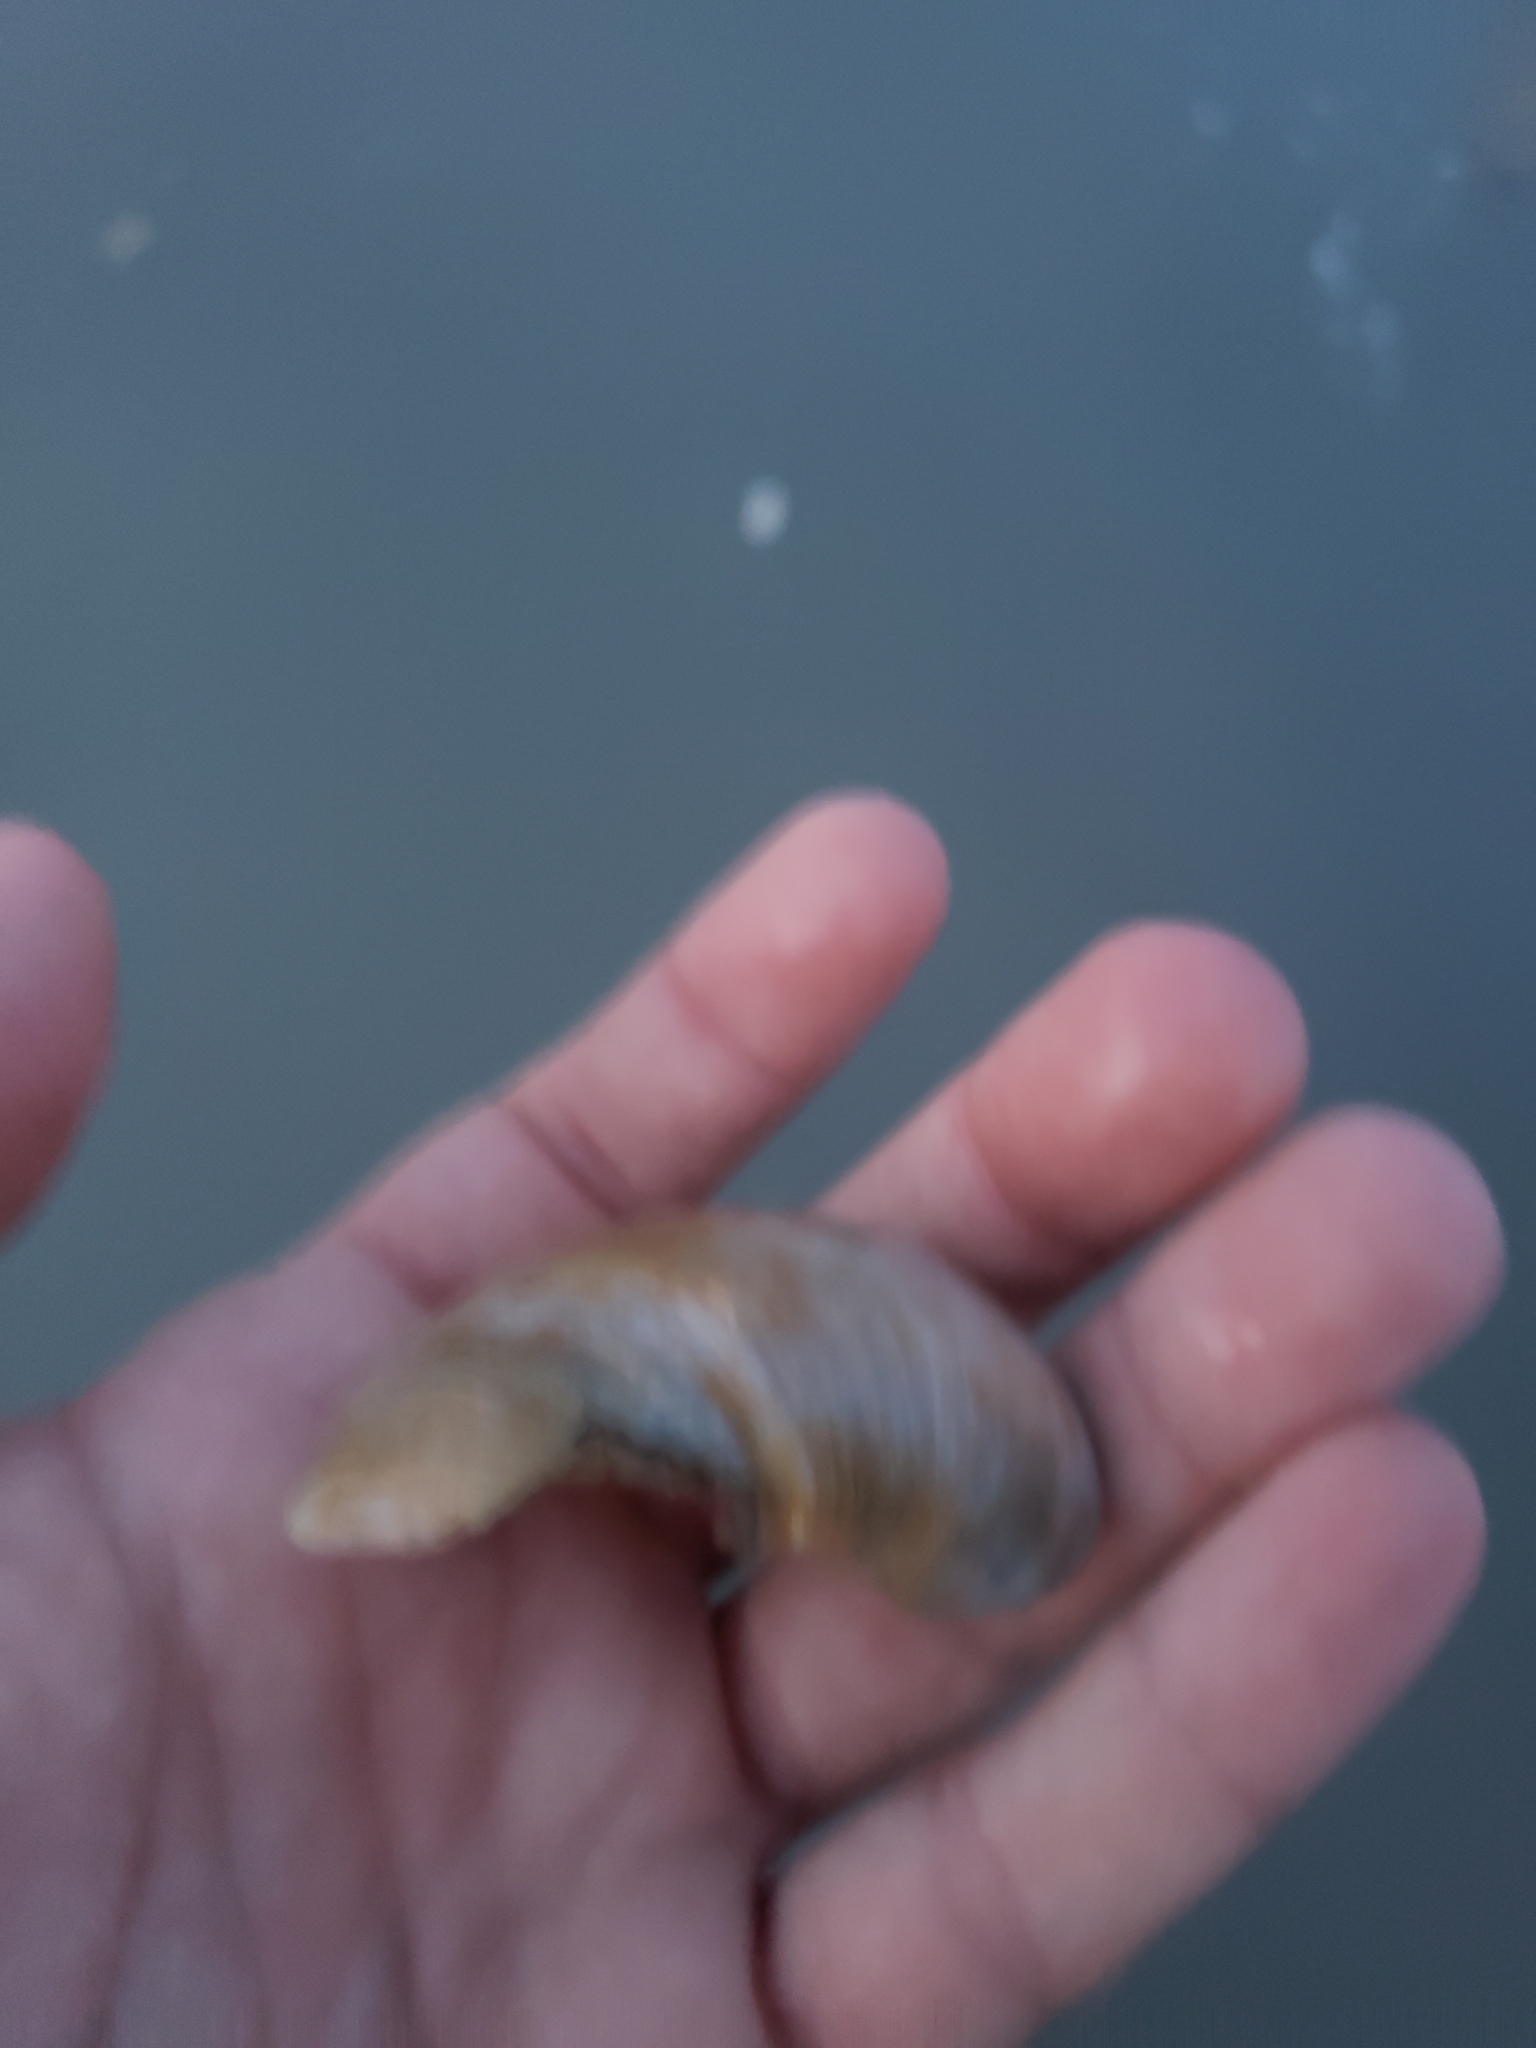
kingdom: Animalia
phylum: Mollusca
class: Gastropoda
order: Littorinimorpha
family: Naticidae
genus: Neverita
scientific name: Neverita duplicata
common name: Lobed moonsnail
